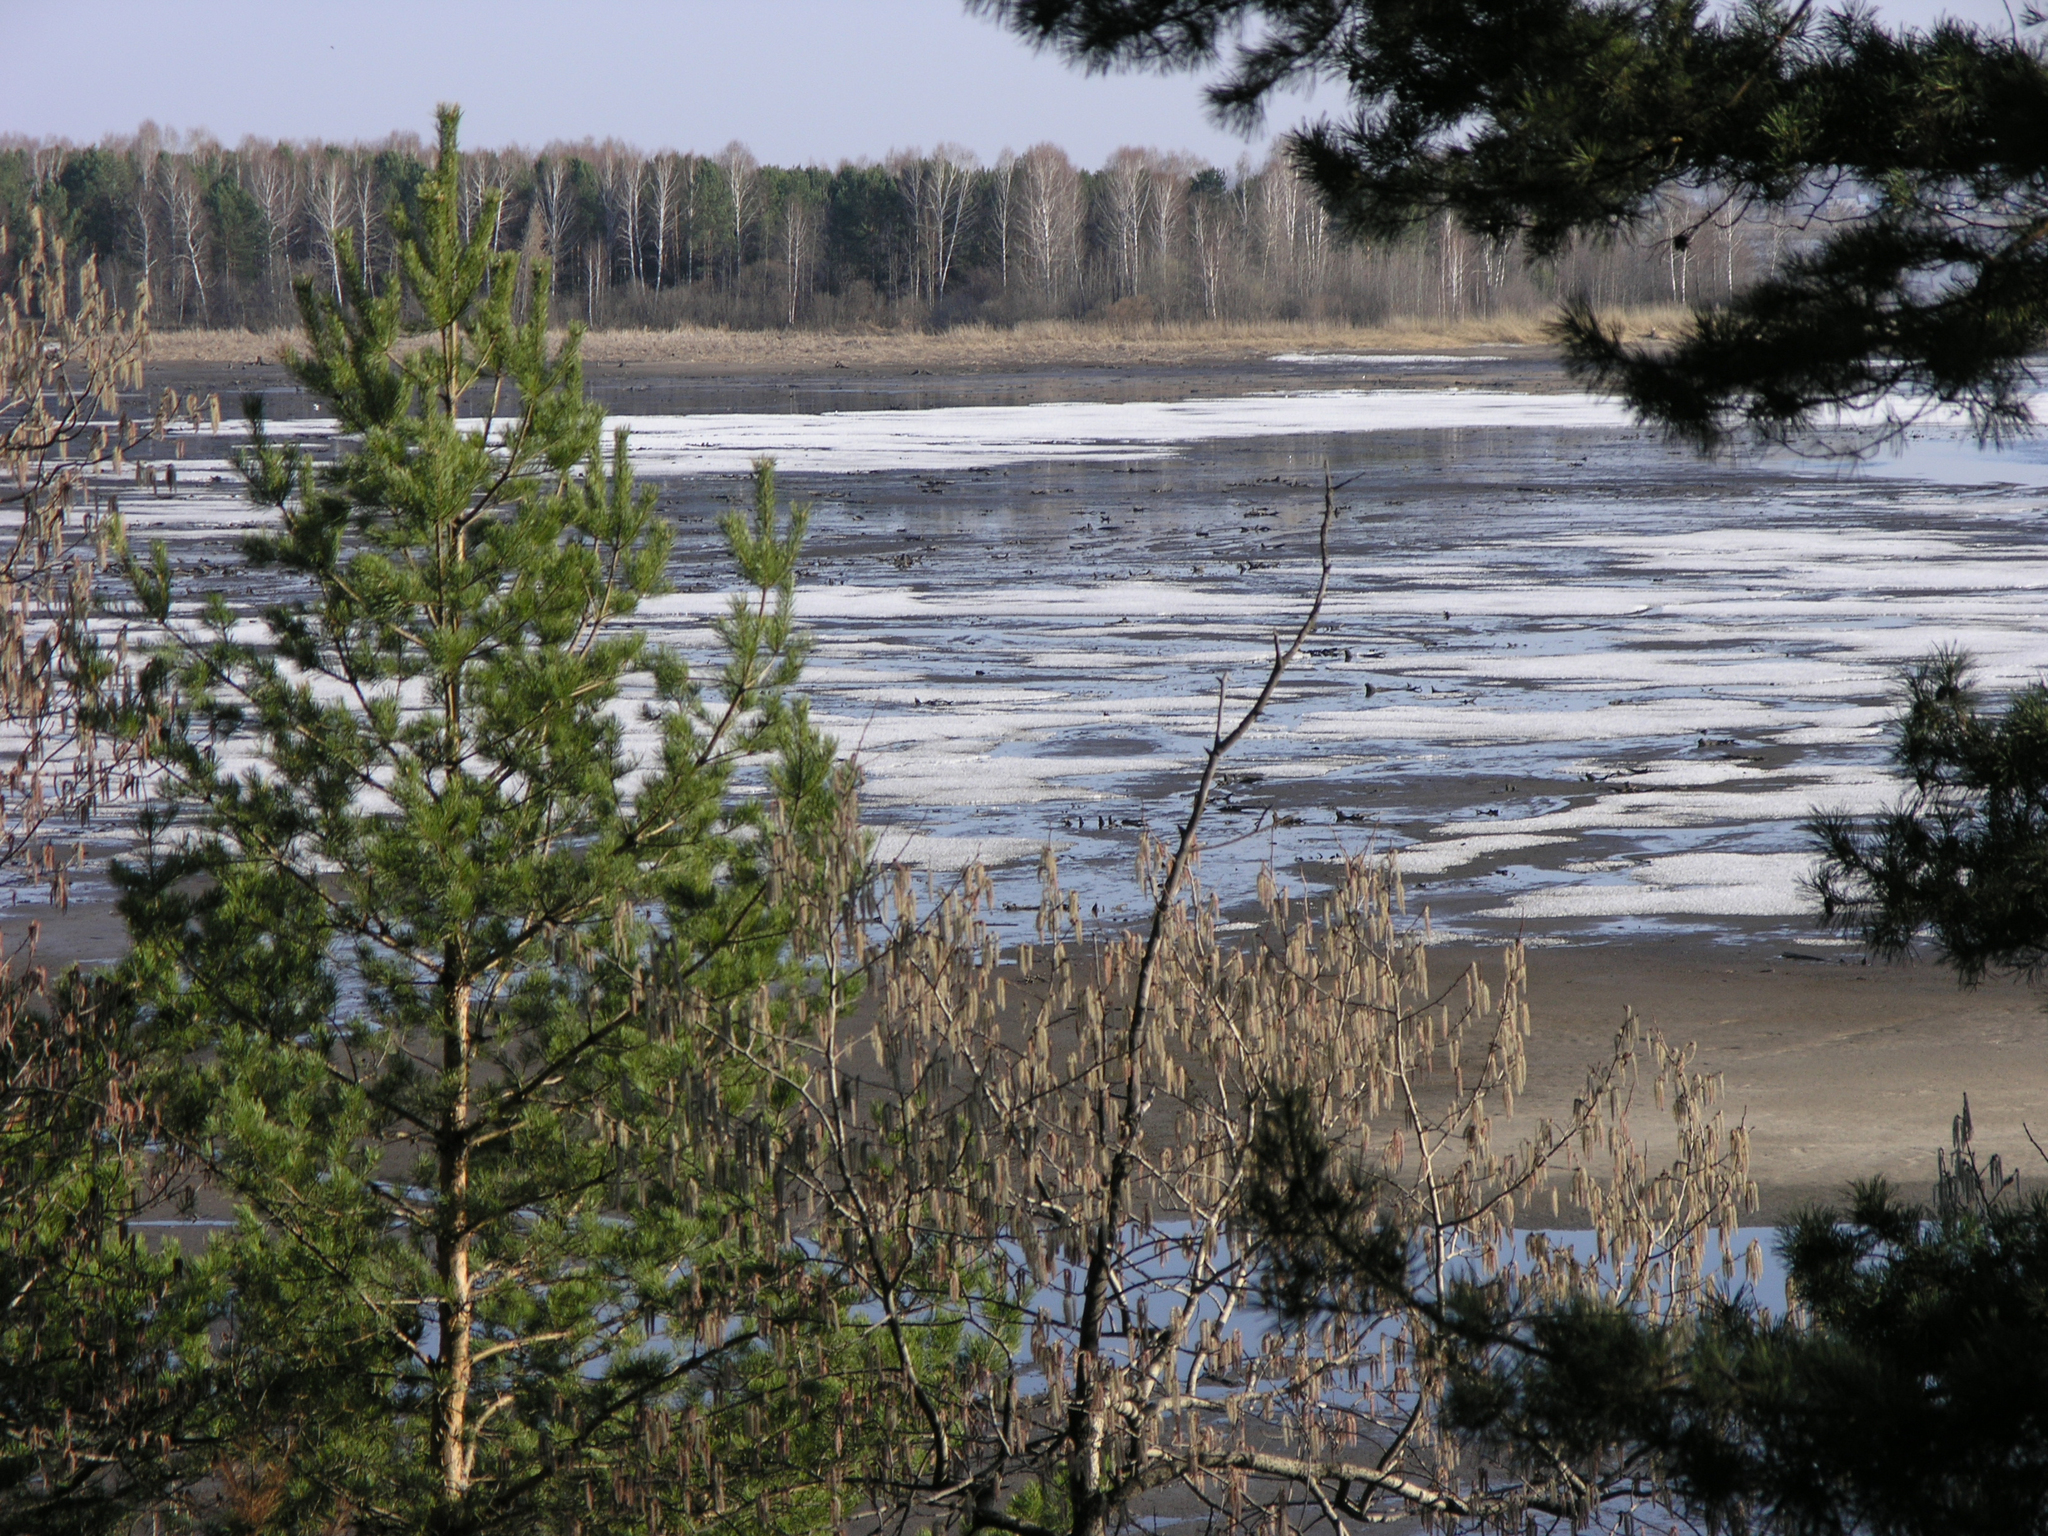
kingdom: Plantae
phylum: Tracheophyta
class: Pinopsida
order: Pinales
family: Pinaceae
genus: Pinus
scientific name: Pinus sylvestris
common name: Scots pine
